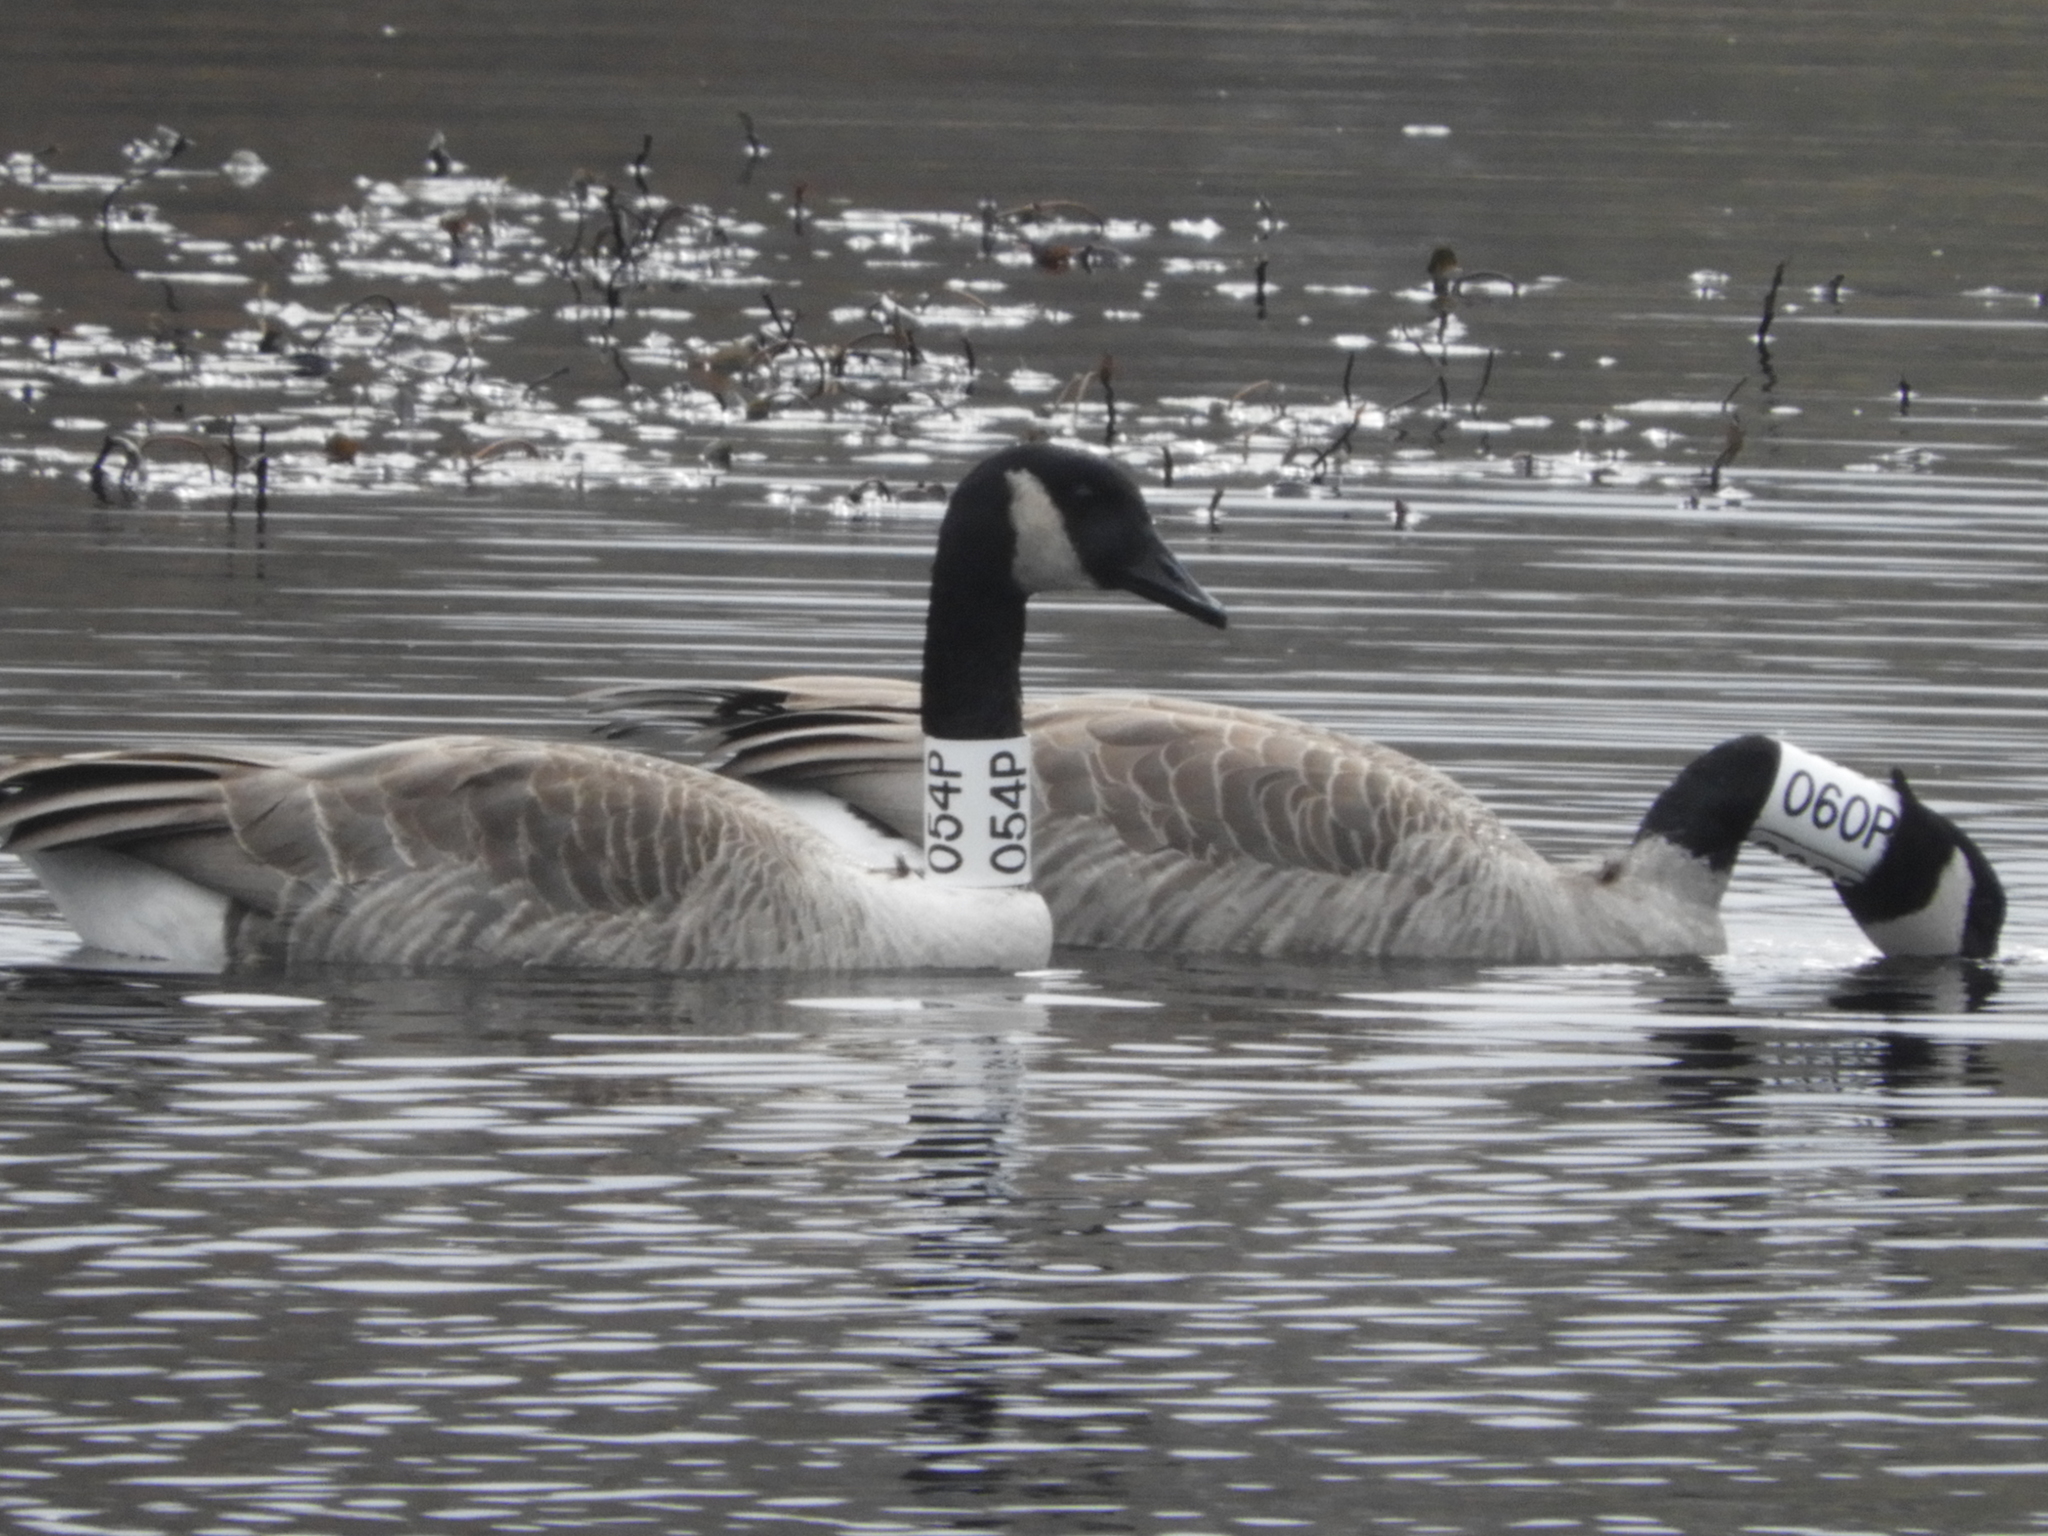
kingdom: Animalia
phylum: Chordata
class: Aves
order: Anseriformes
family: Anatidae
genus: Branta
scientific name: Branta canadensis
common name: Canada goose
